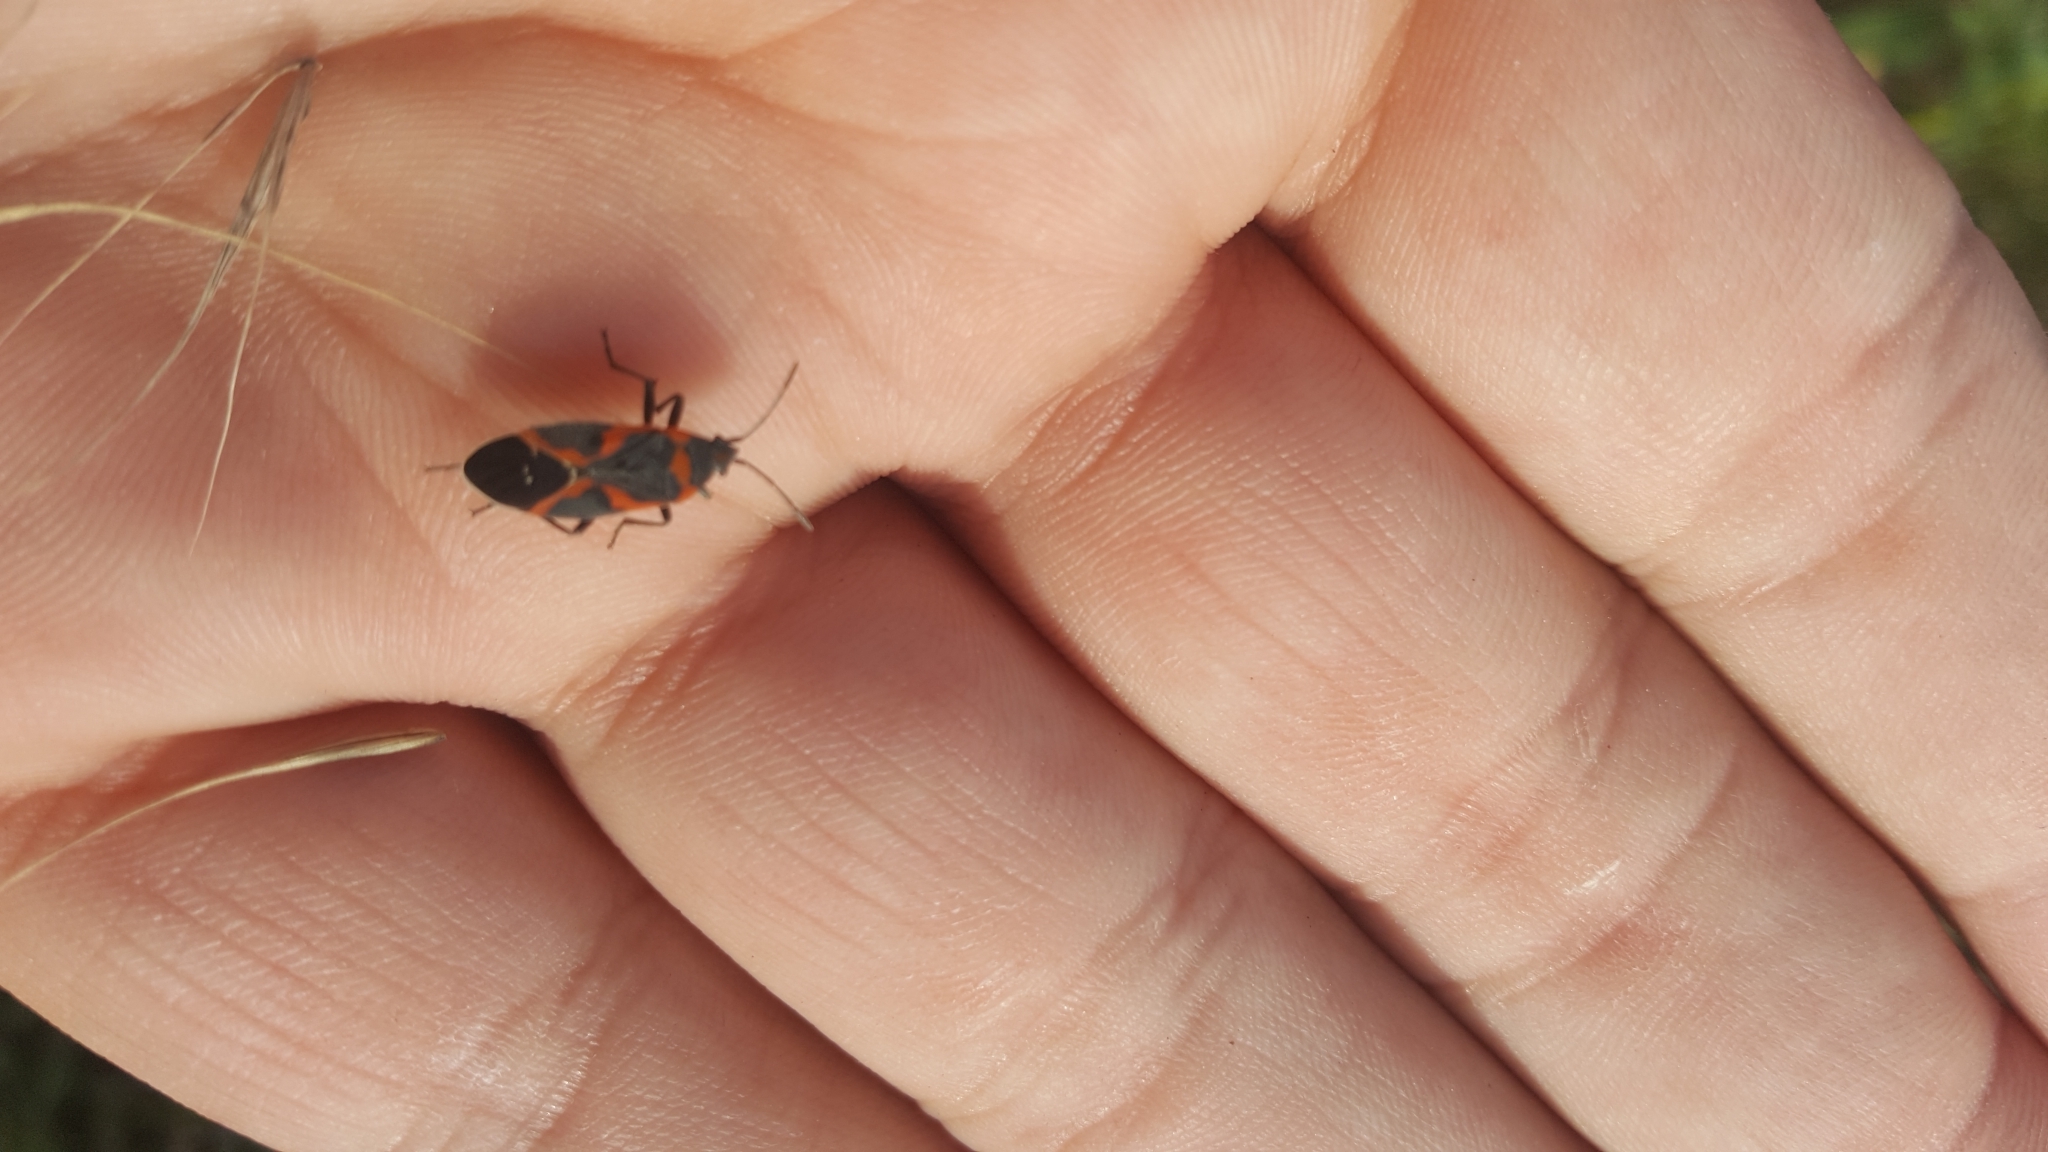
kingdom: Animalia
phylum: Arthropoda
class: Insecta
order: Hemiptera
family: Lygaeidae
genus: Lygaeus
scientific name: Lygaeus kalmii
